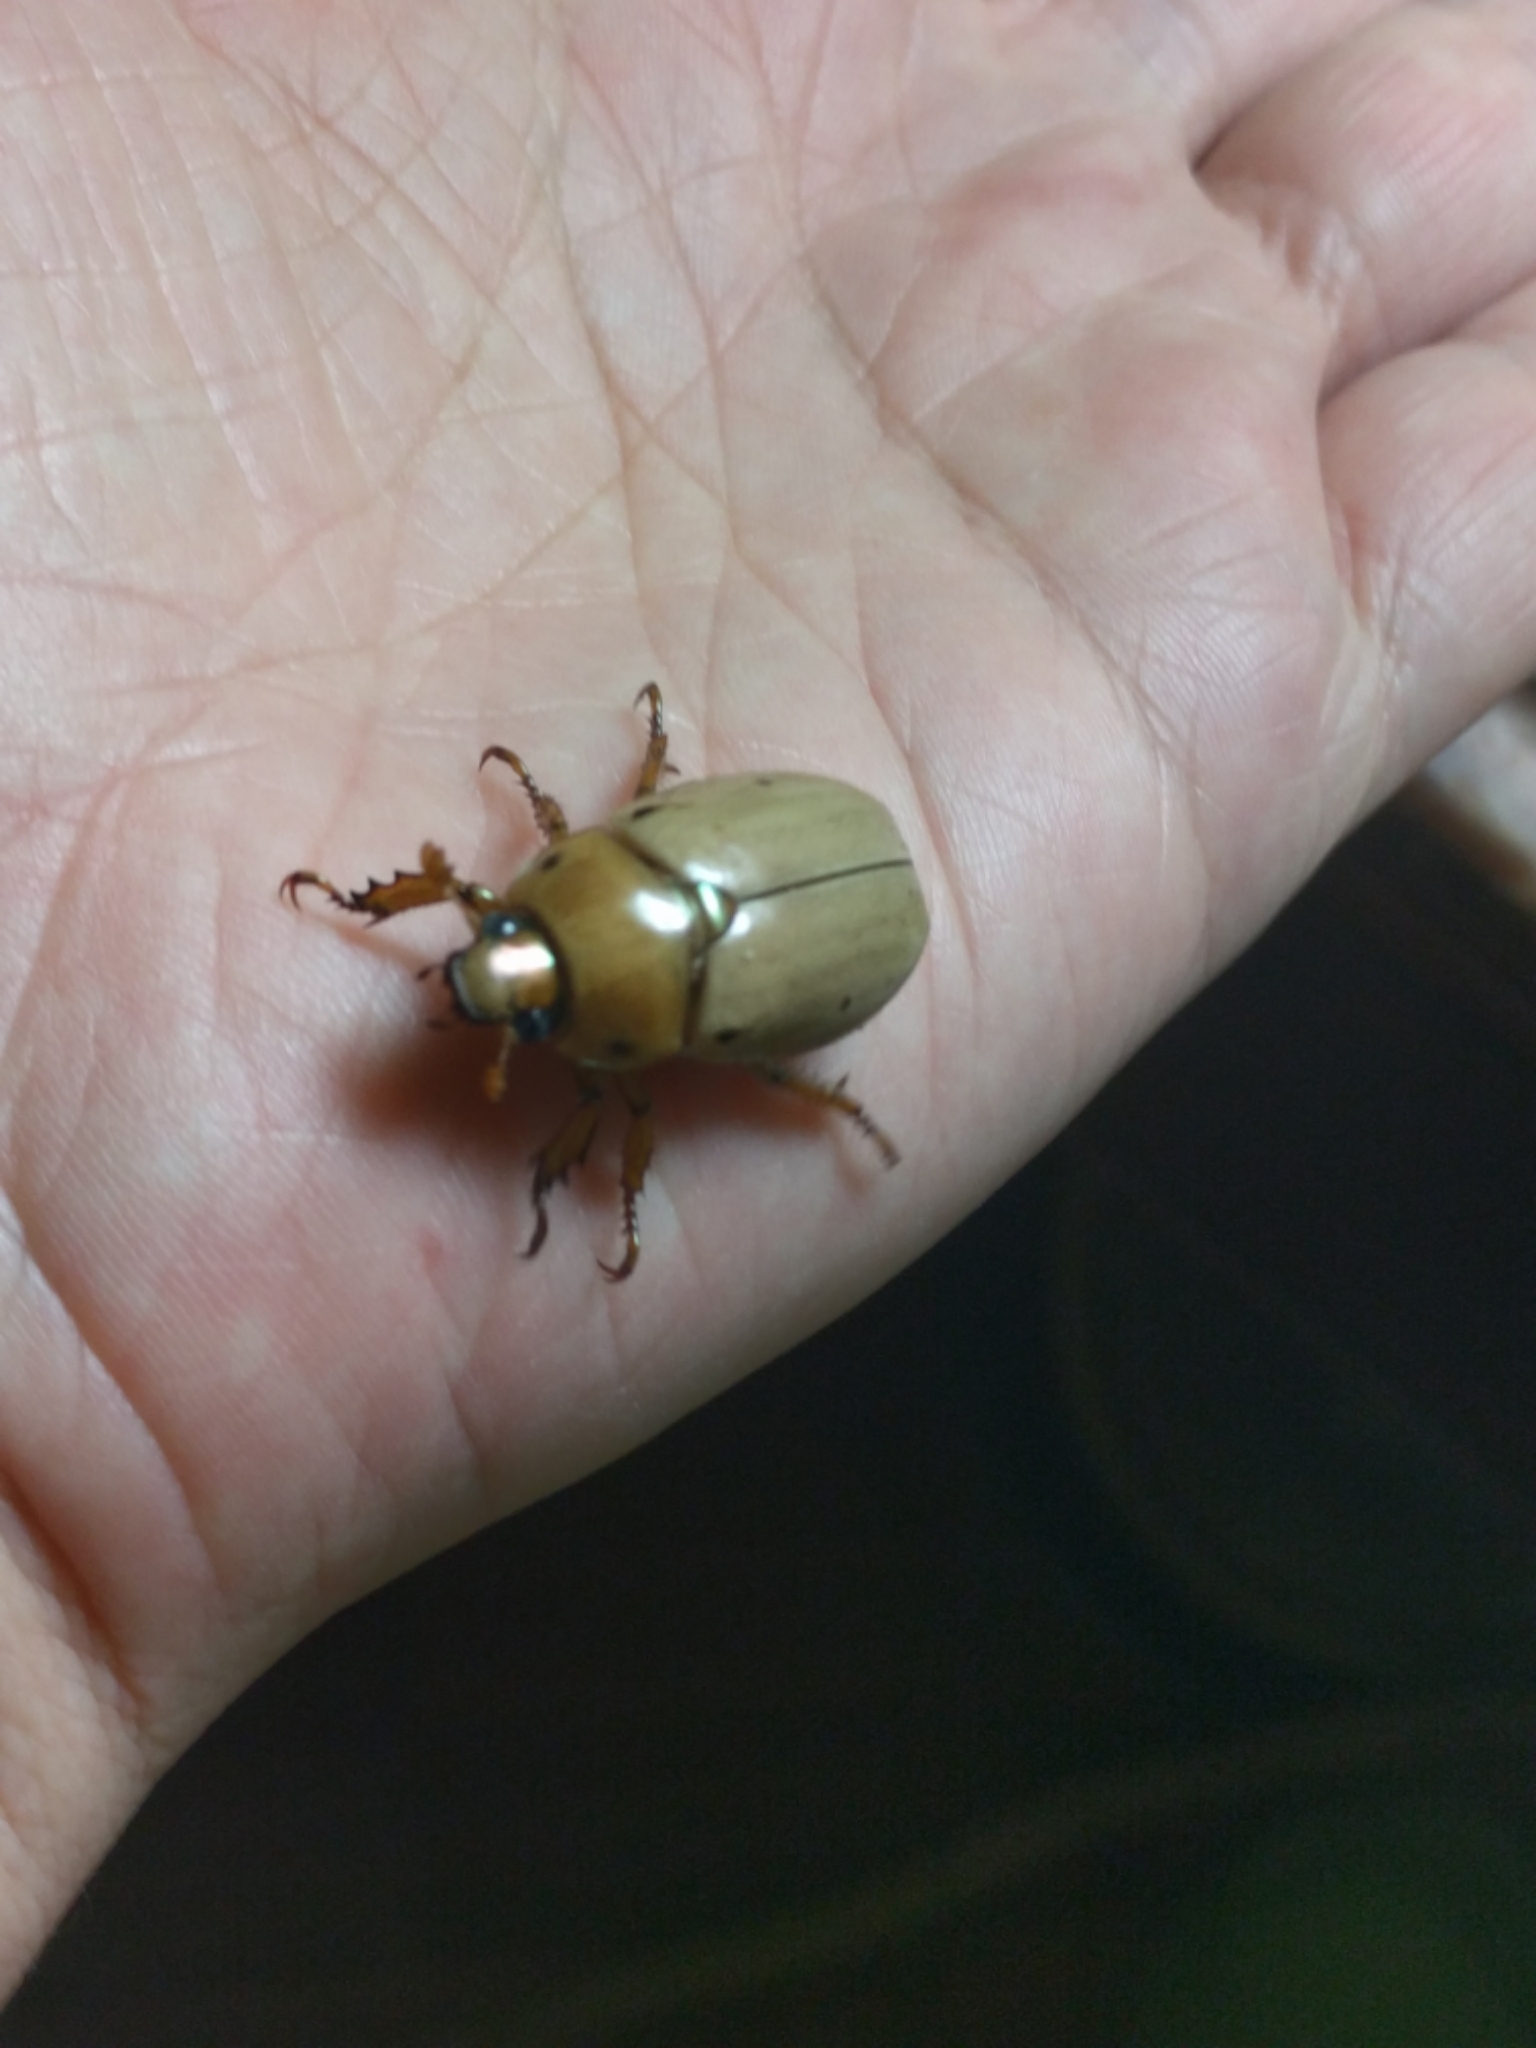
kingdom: Animalia
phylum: Arthropoda
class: Insecta
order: Coleoptera
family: Scarabaeidae
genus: Pelidnota
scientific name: Pelidnota punctata
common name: Grapevine beetle
